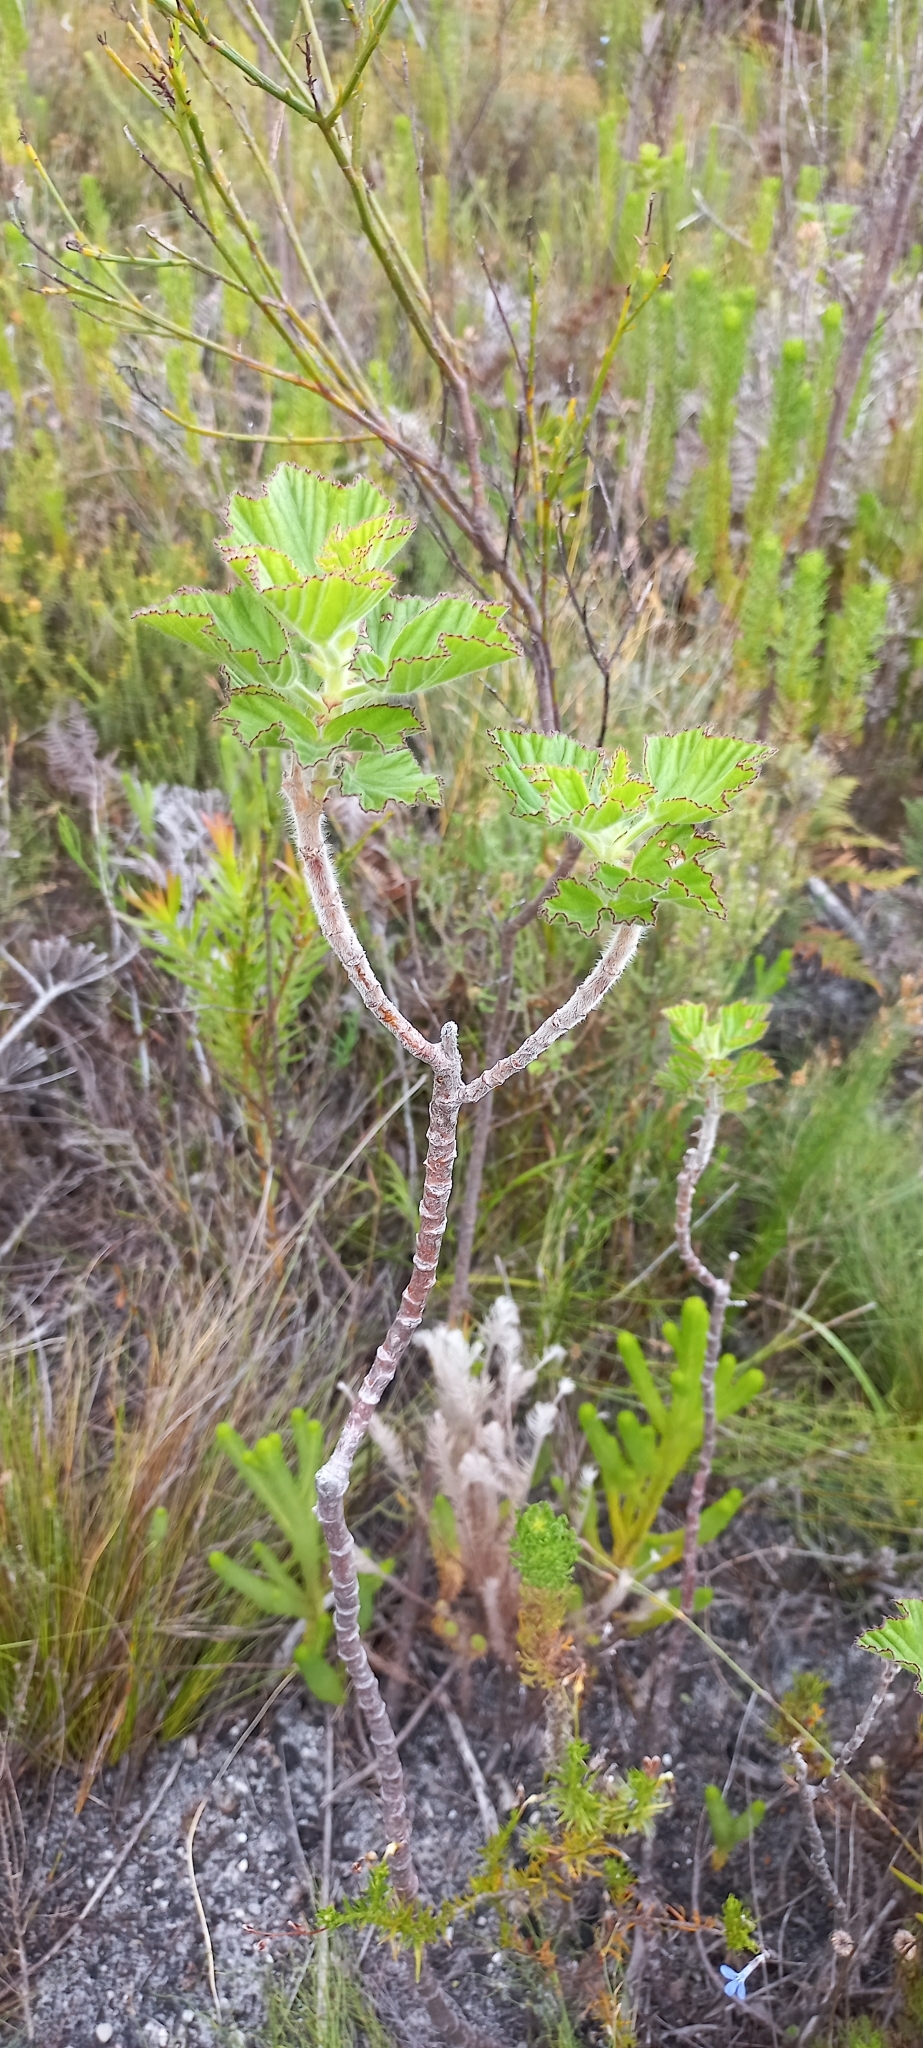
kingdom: Plantae
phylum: Tracheophyta
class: Magnoliopsida
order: Geraniales
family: Geraniaceae
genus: Pelargonium
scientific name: Pelargonium cucullatum
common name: Tree pelargonium
